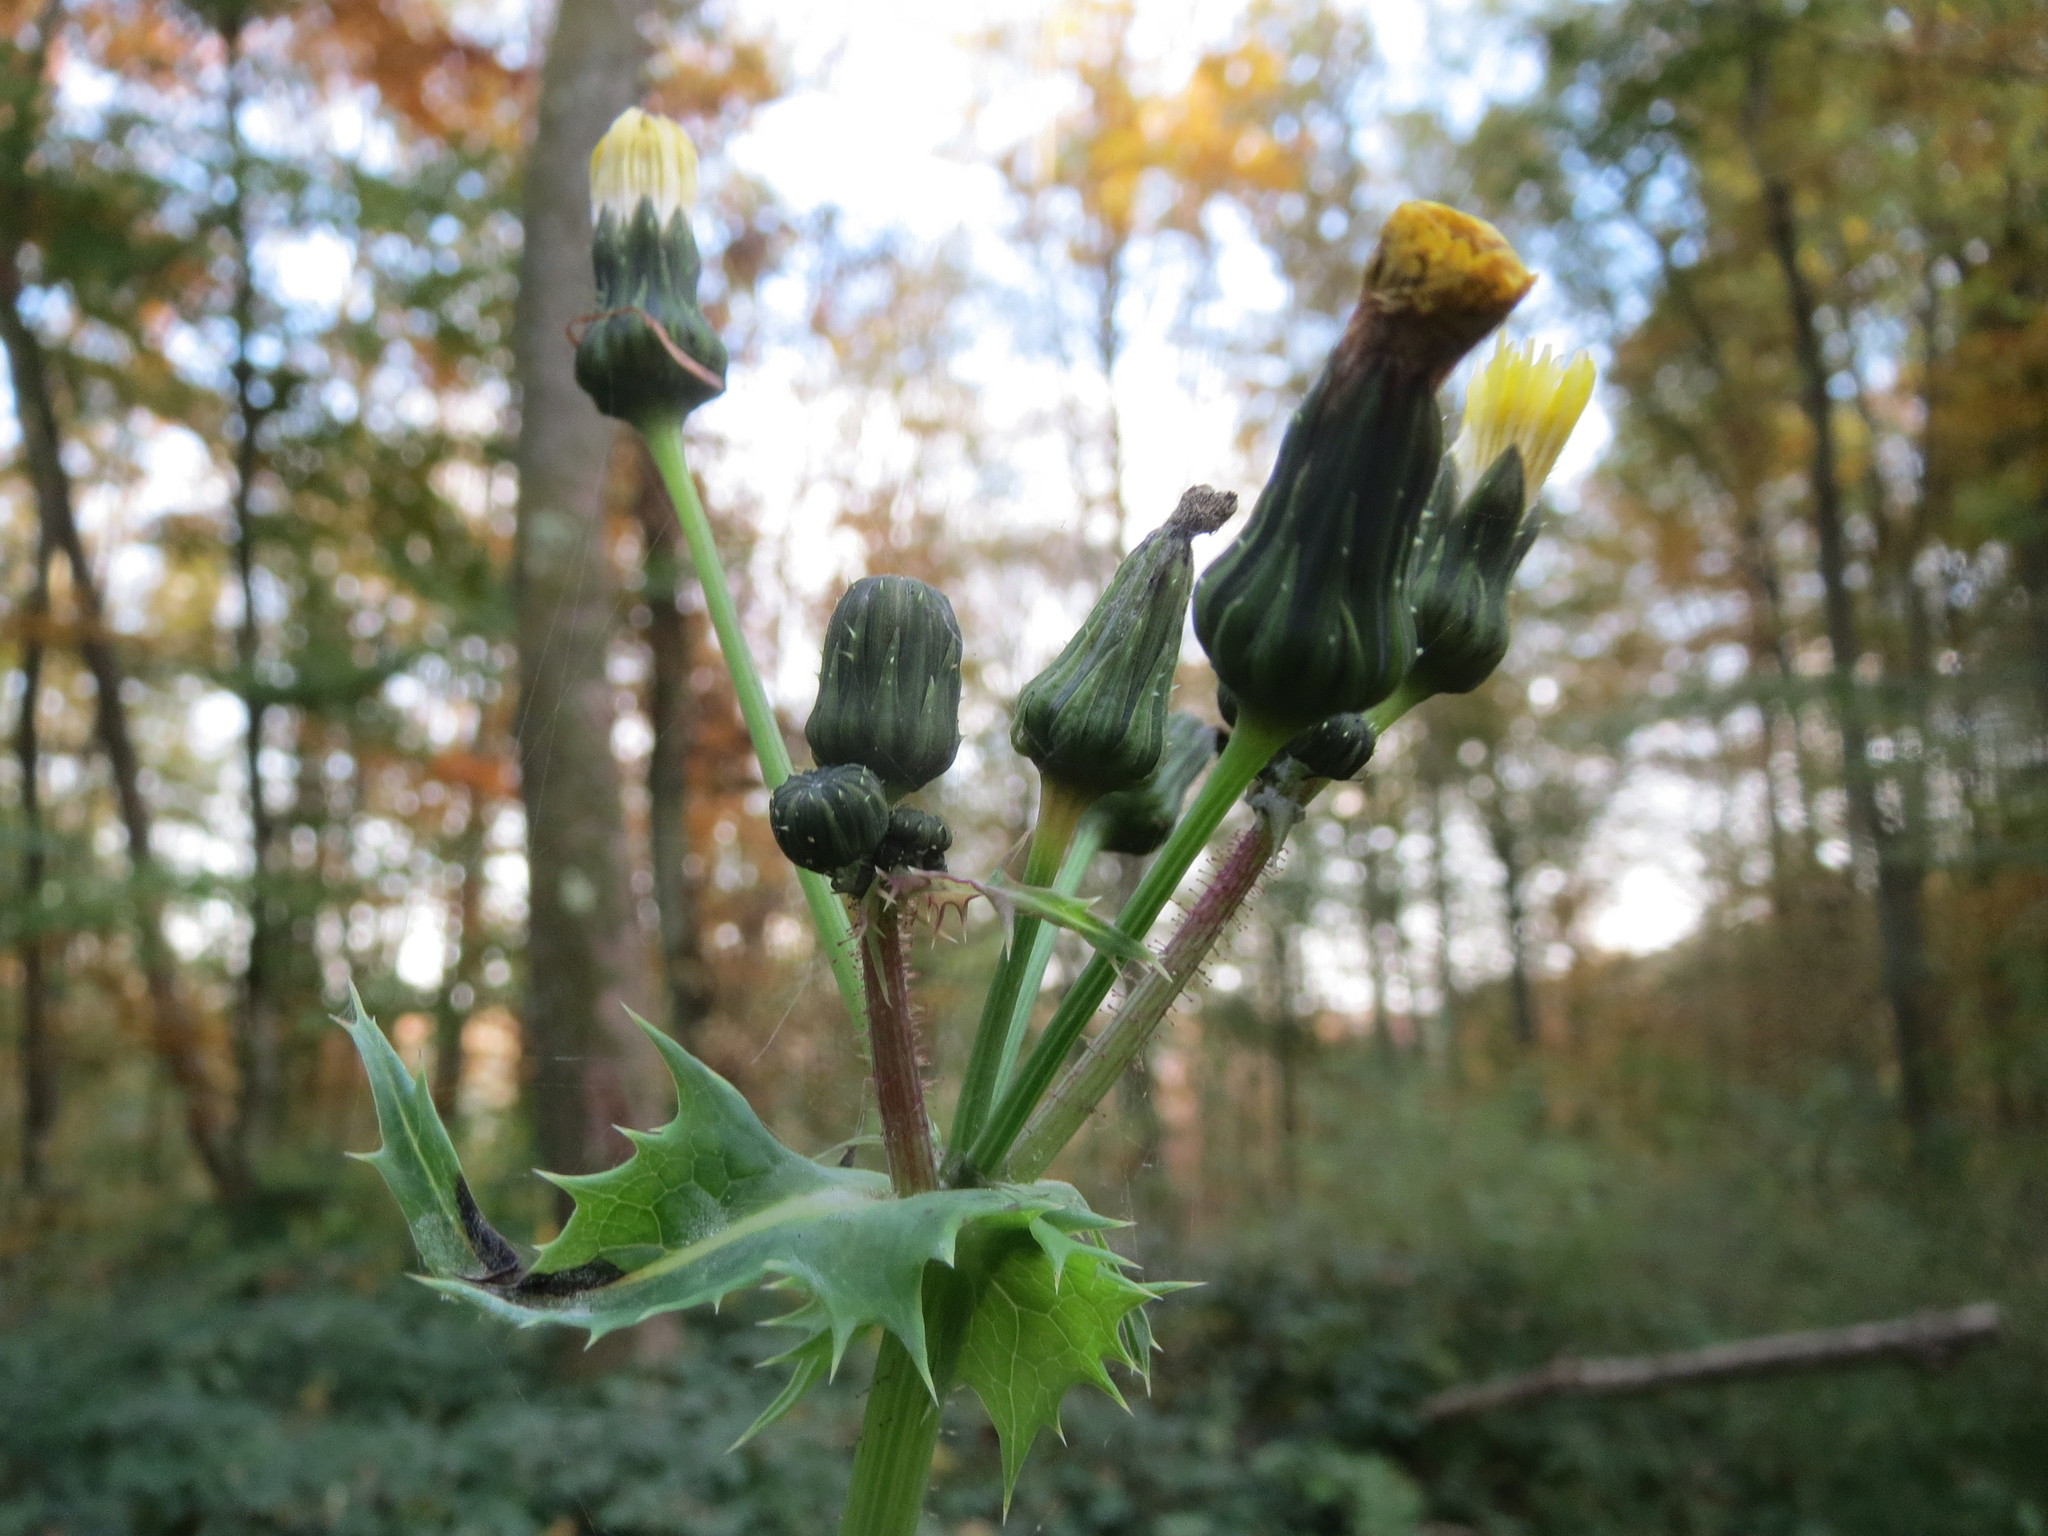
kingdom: Plantae
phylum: Tracheophyta
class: Magnoliopsida
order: Asterales
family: Asteraceae
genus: Sonchus
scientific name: Sonchus asper
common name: Prickly sow-thistle
